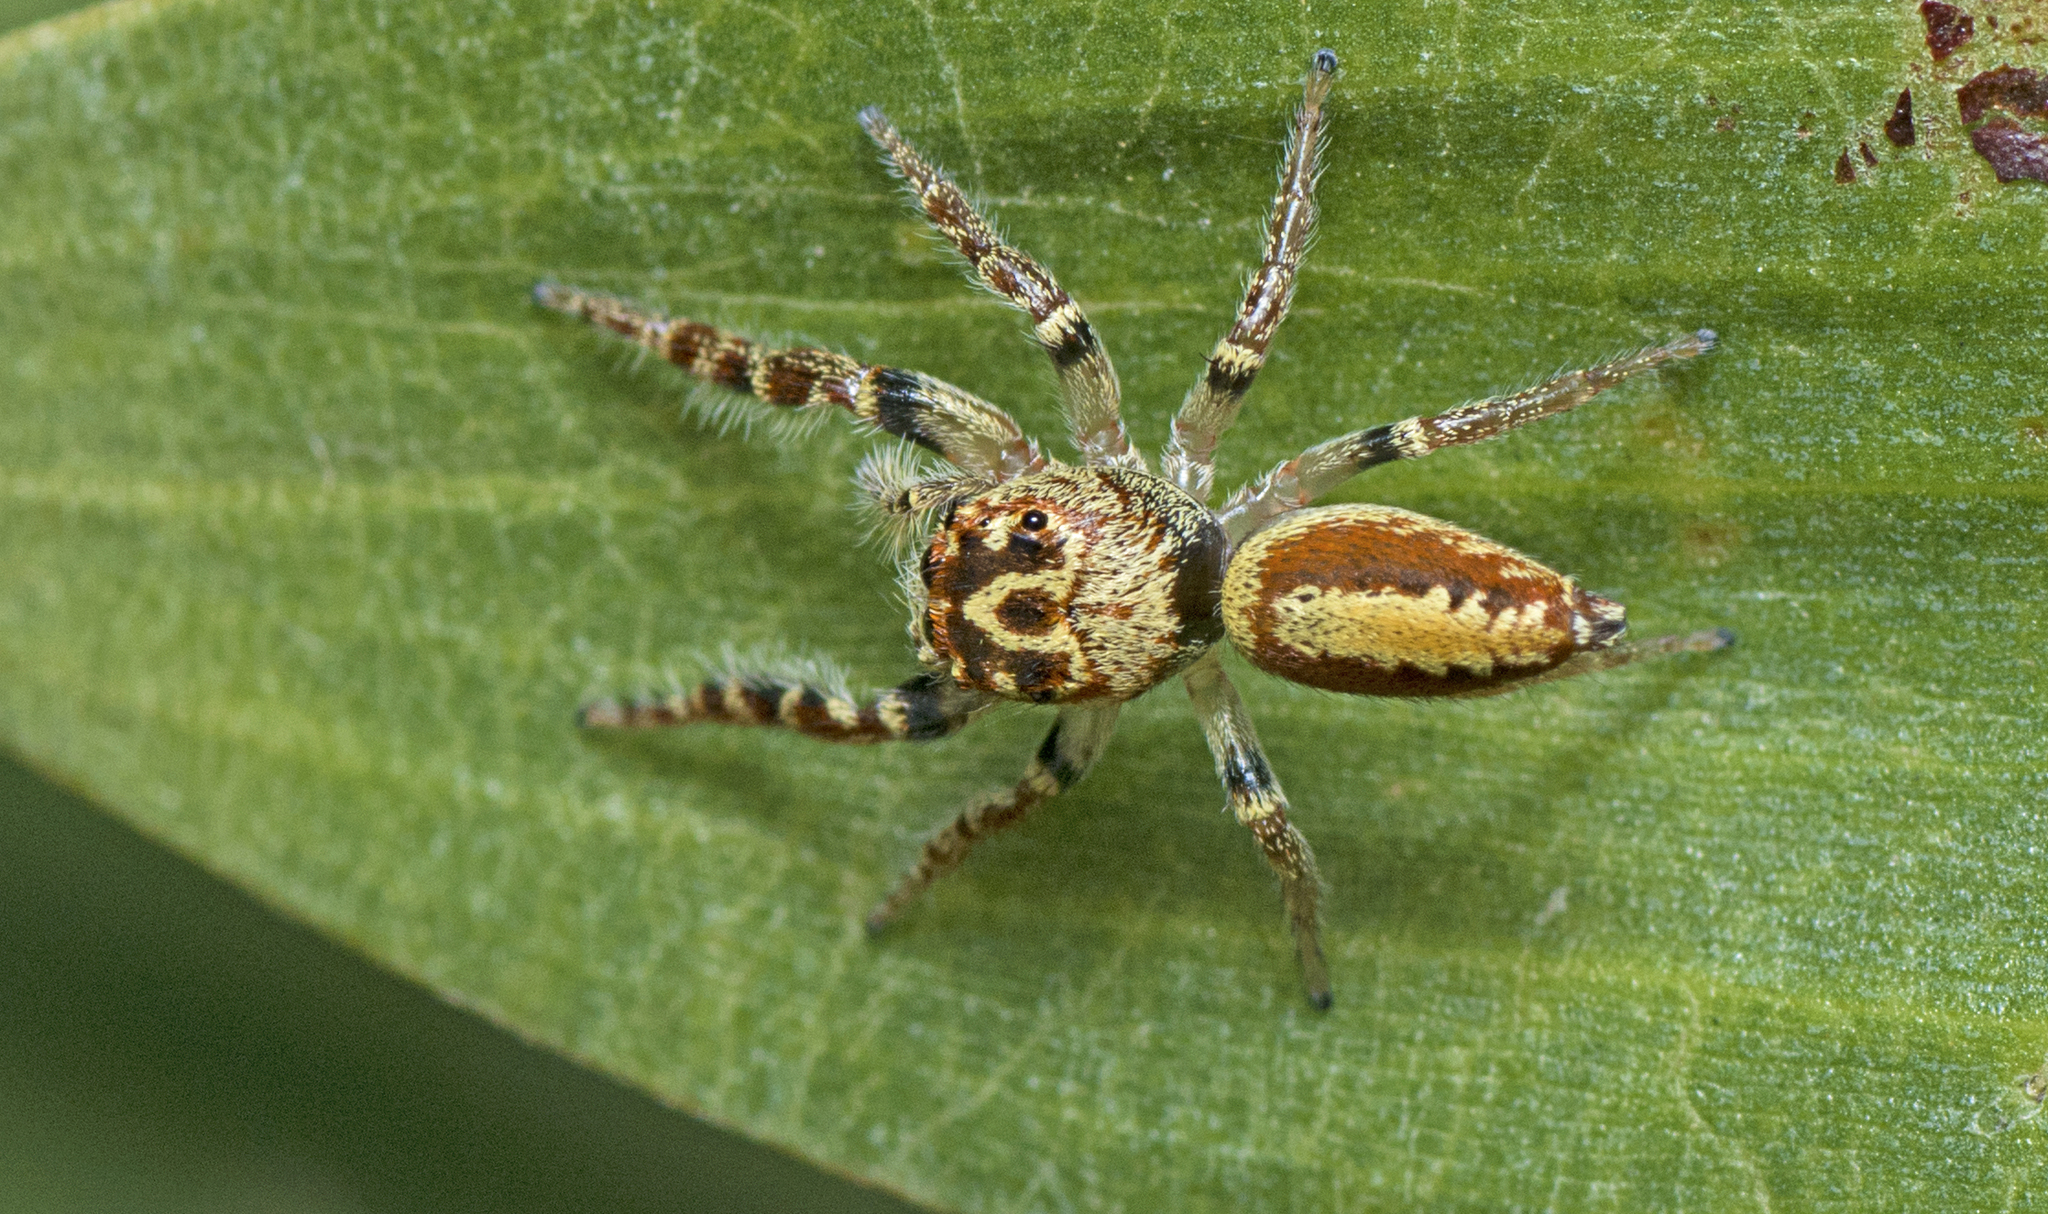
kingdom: Animalia
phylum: Arthropoda
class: Arachnida
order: Araneae
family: Salticidae
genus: Opisthoncus
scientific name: Opisthoncus alborufescens
